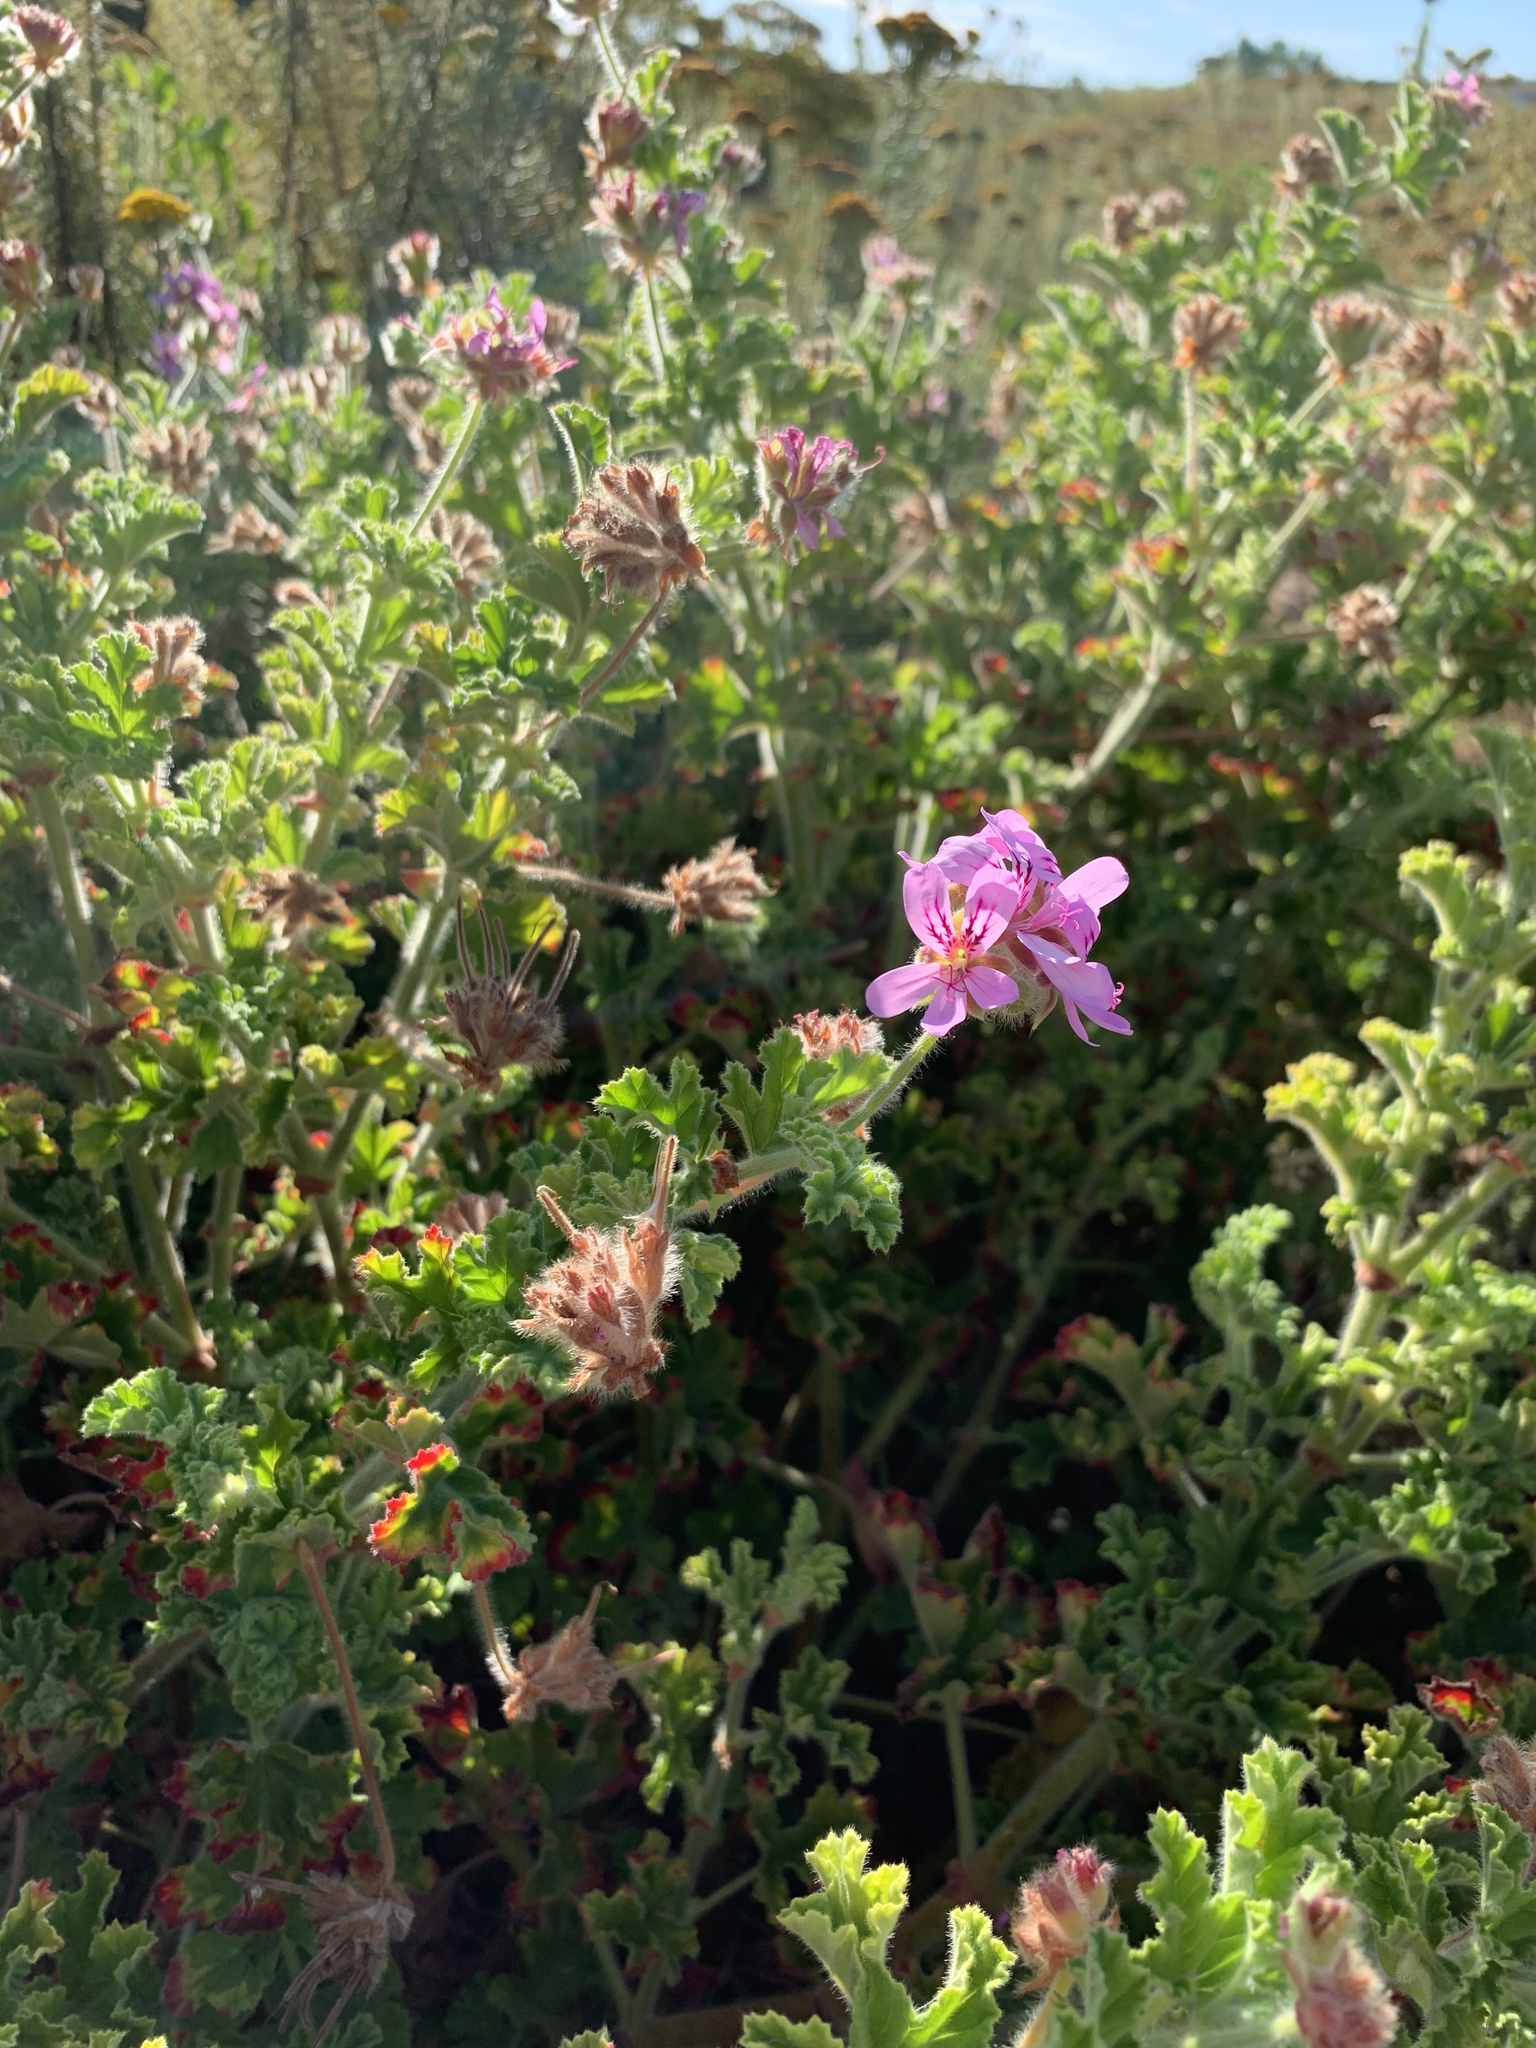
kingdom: Plantae
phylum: Tracheophyta
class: Magnoliopsida
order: Geraniales
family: Geraniaceae
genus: Pelargonium
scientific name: Pelargonium capitatum
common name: Rose scented geranium
